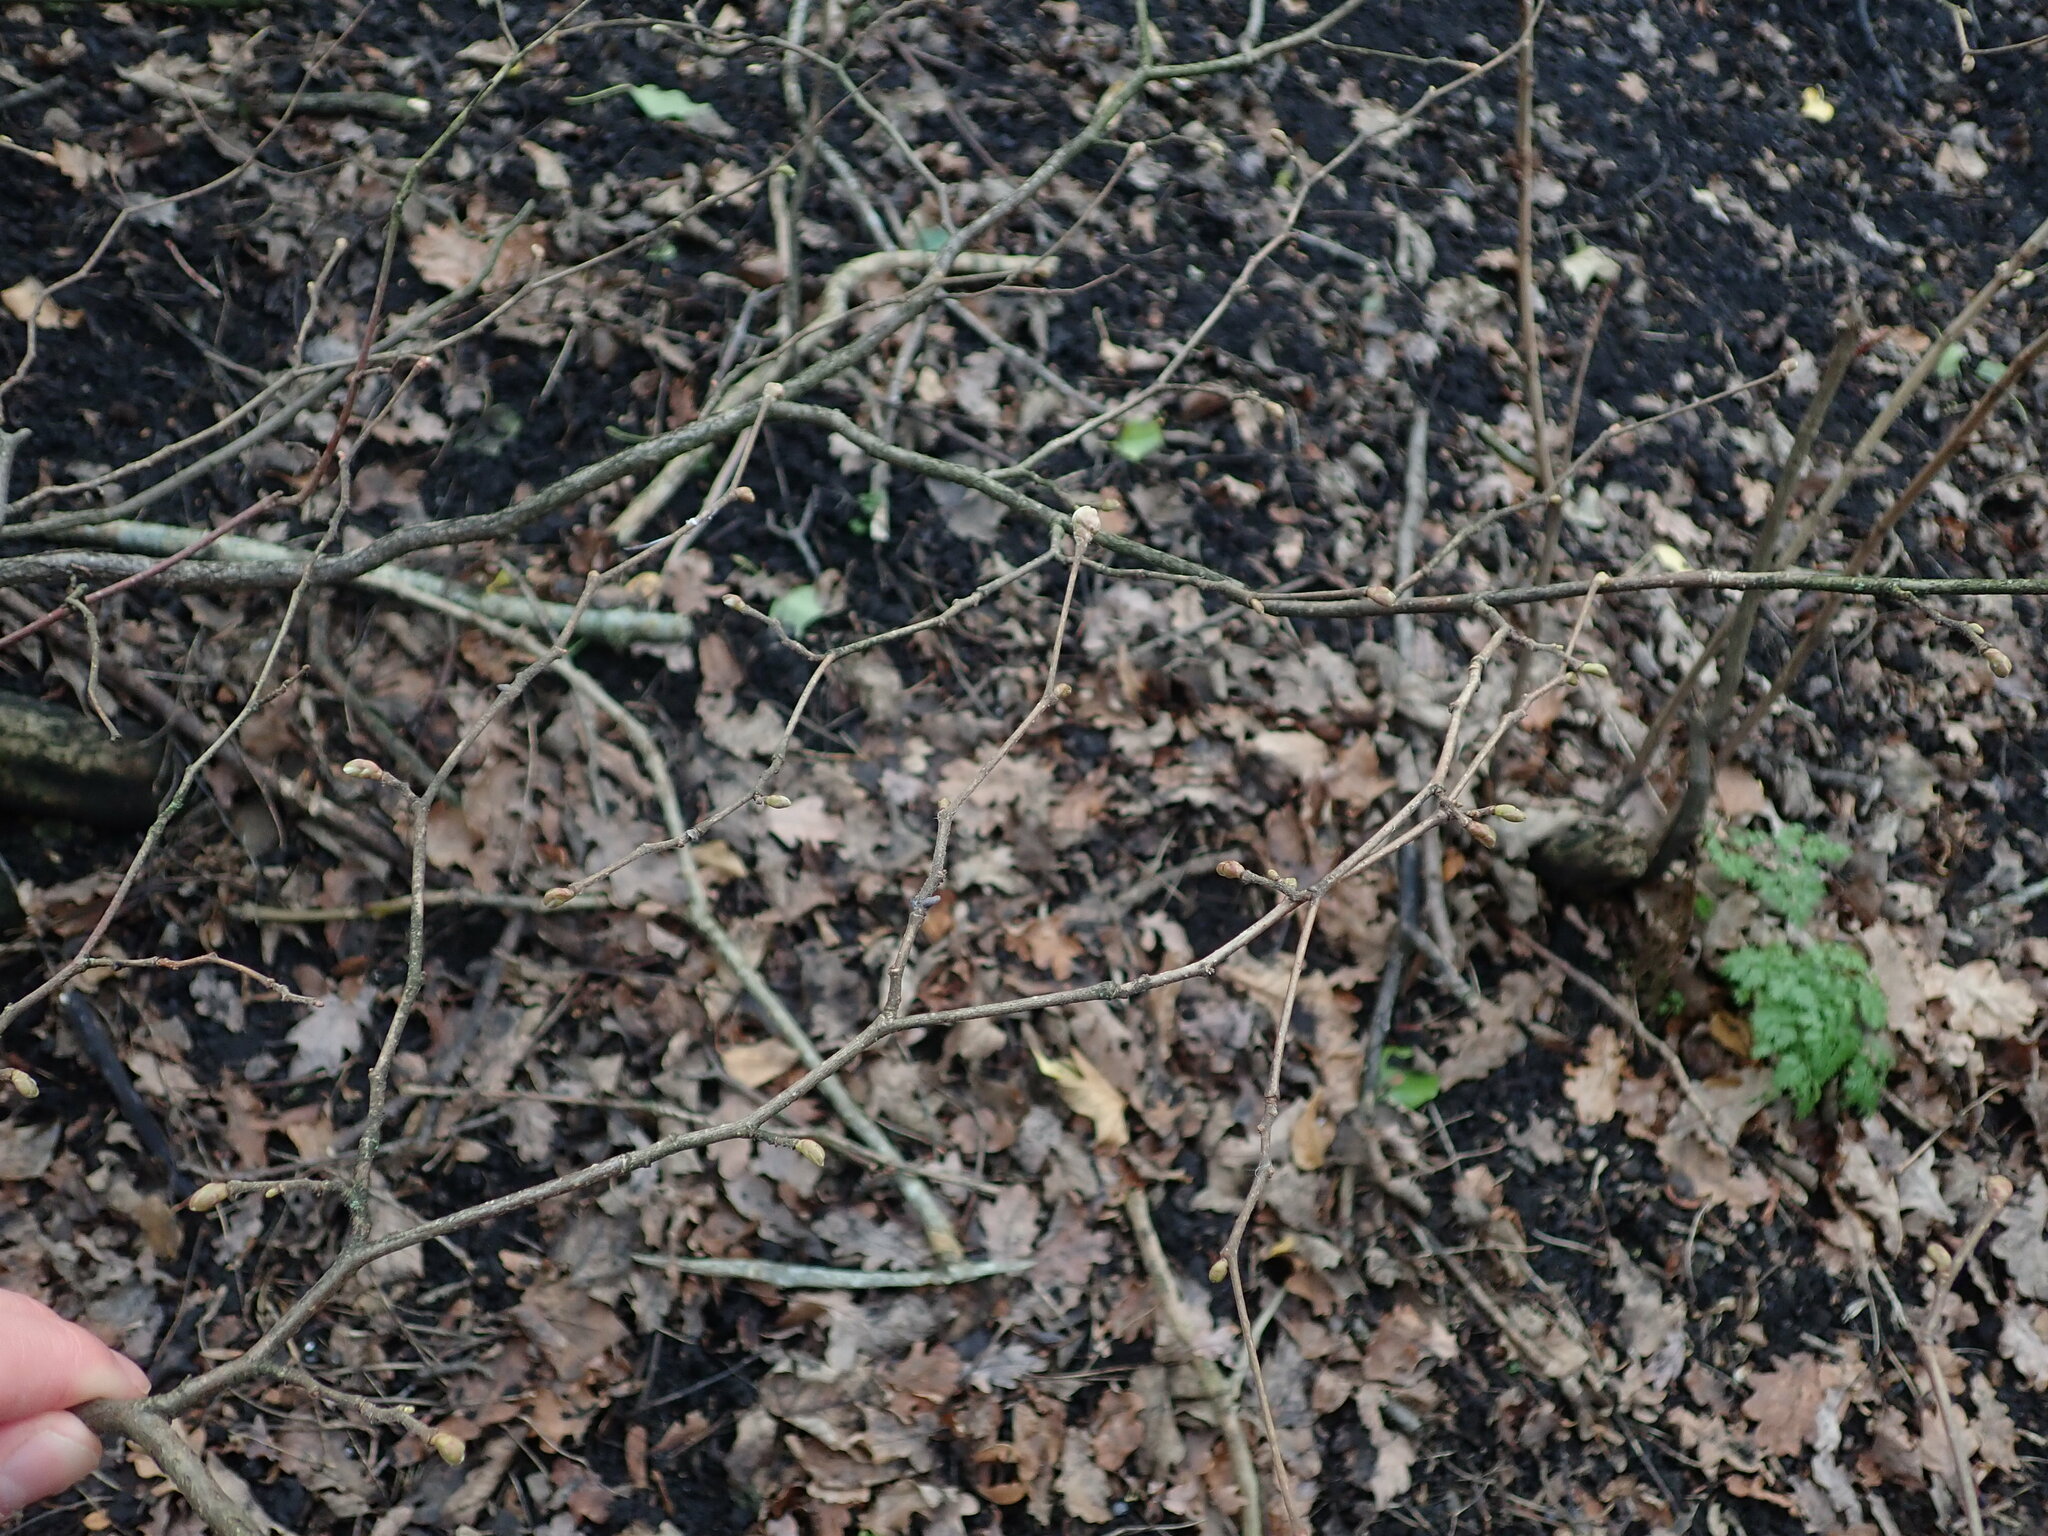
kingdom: Plantae
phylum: Tracheophyta
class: Magnoliopsida
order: Fagales
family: Betulaceae
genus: Corylus
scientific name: Corylus avellana
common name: European hazel
